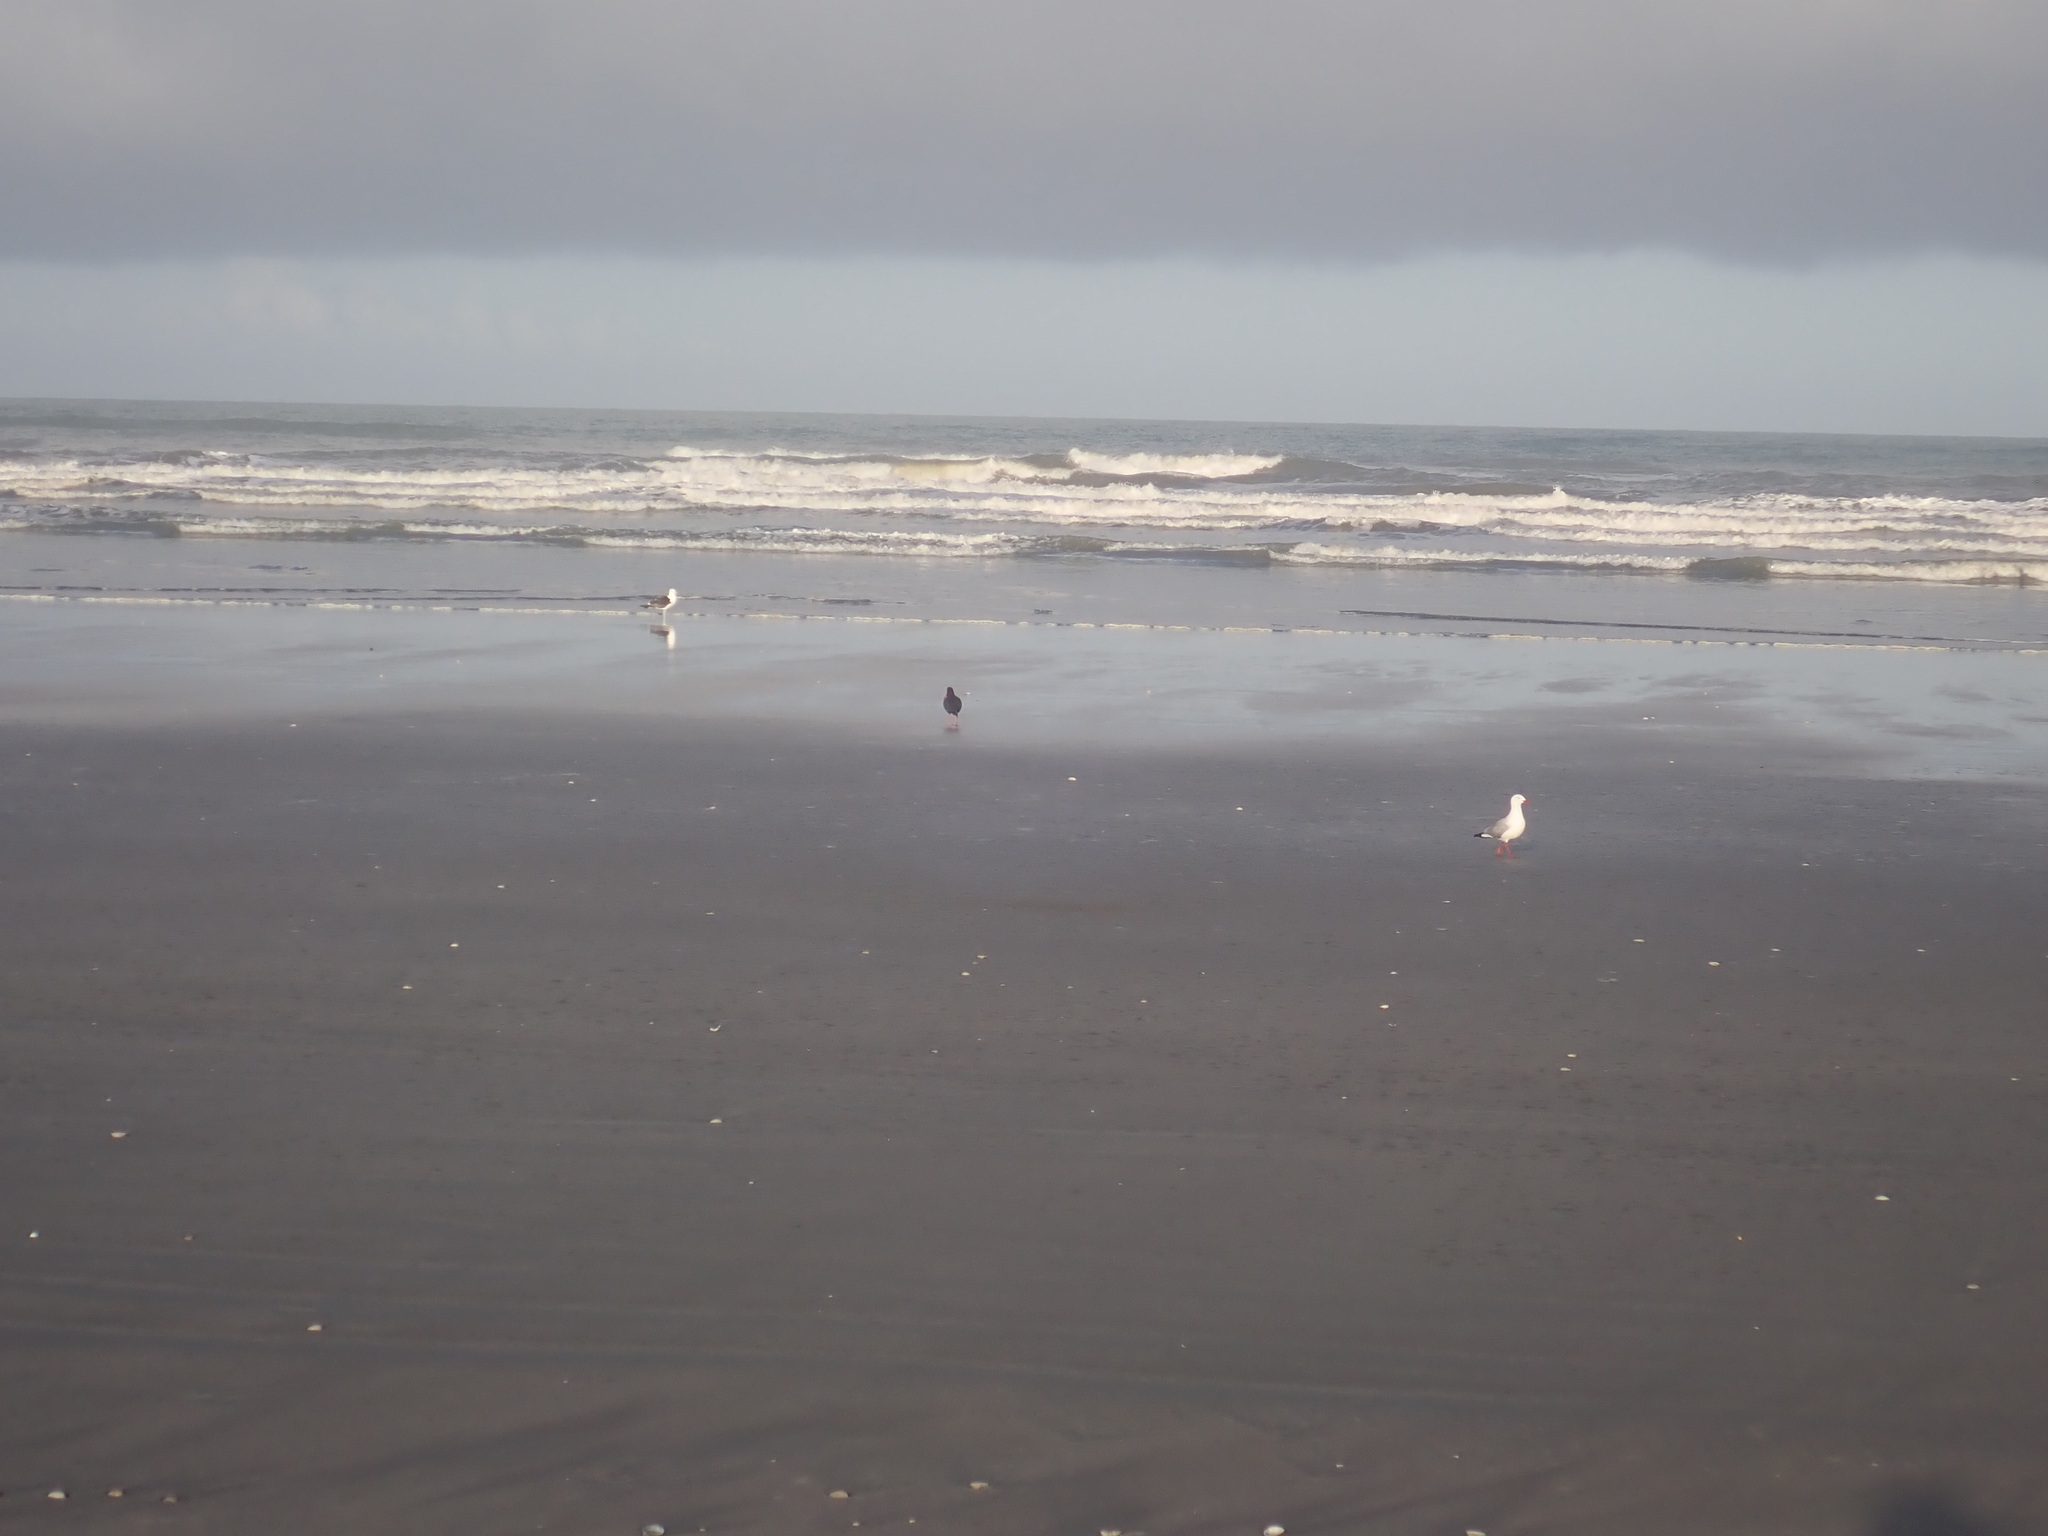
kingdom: Animalia
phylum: Chordata
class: Aves
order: Charadriiformes
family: Haematopodidae
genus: Haematopus
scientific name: Haematopus unicolor
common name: Variable oystercatcher
